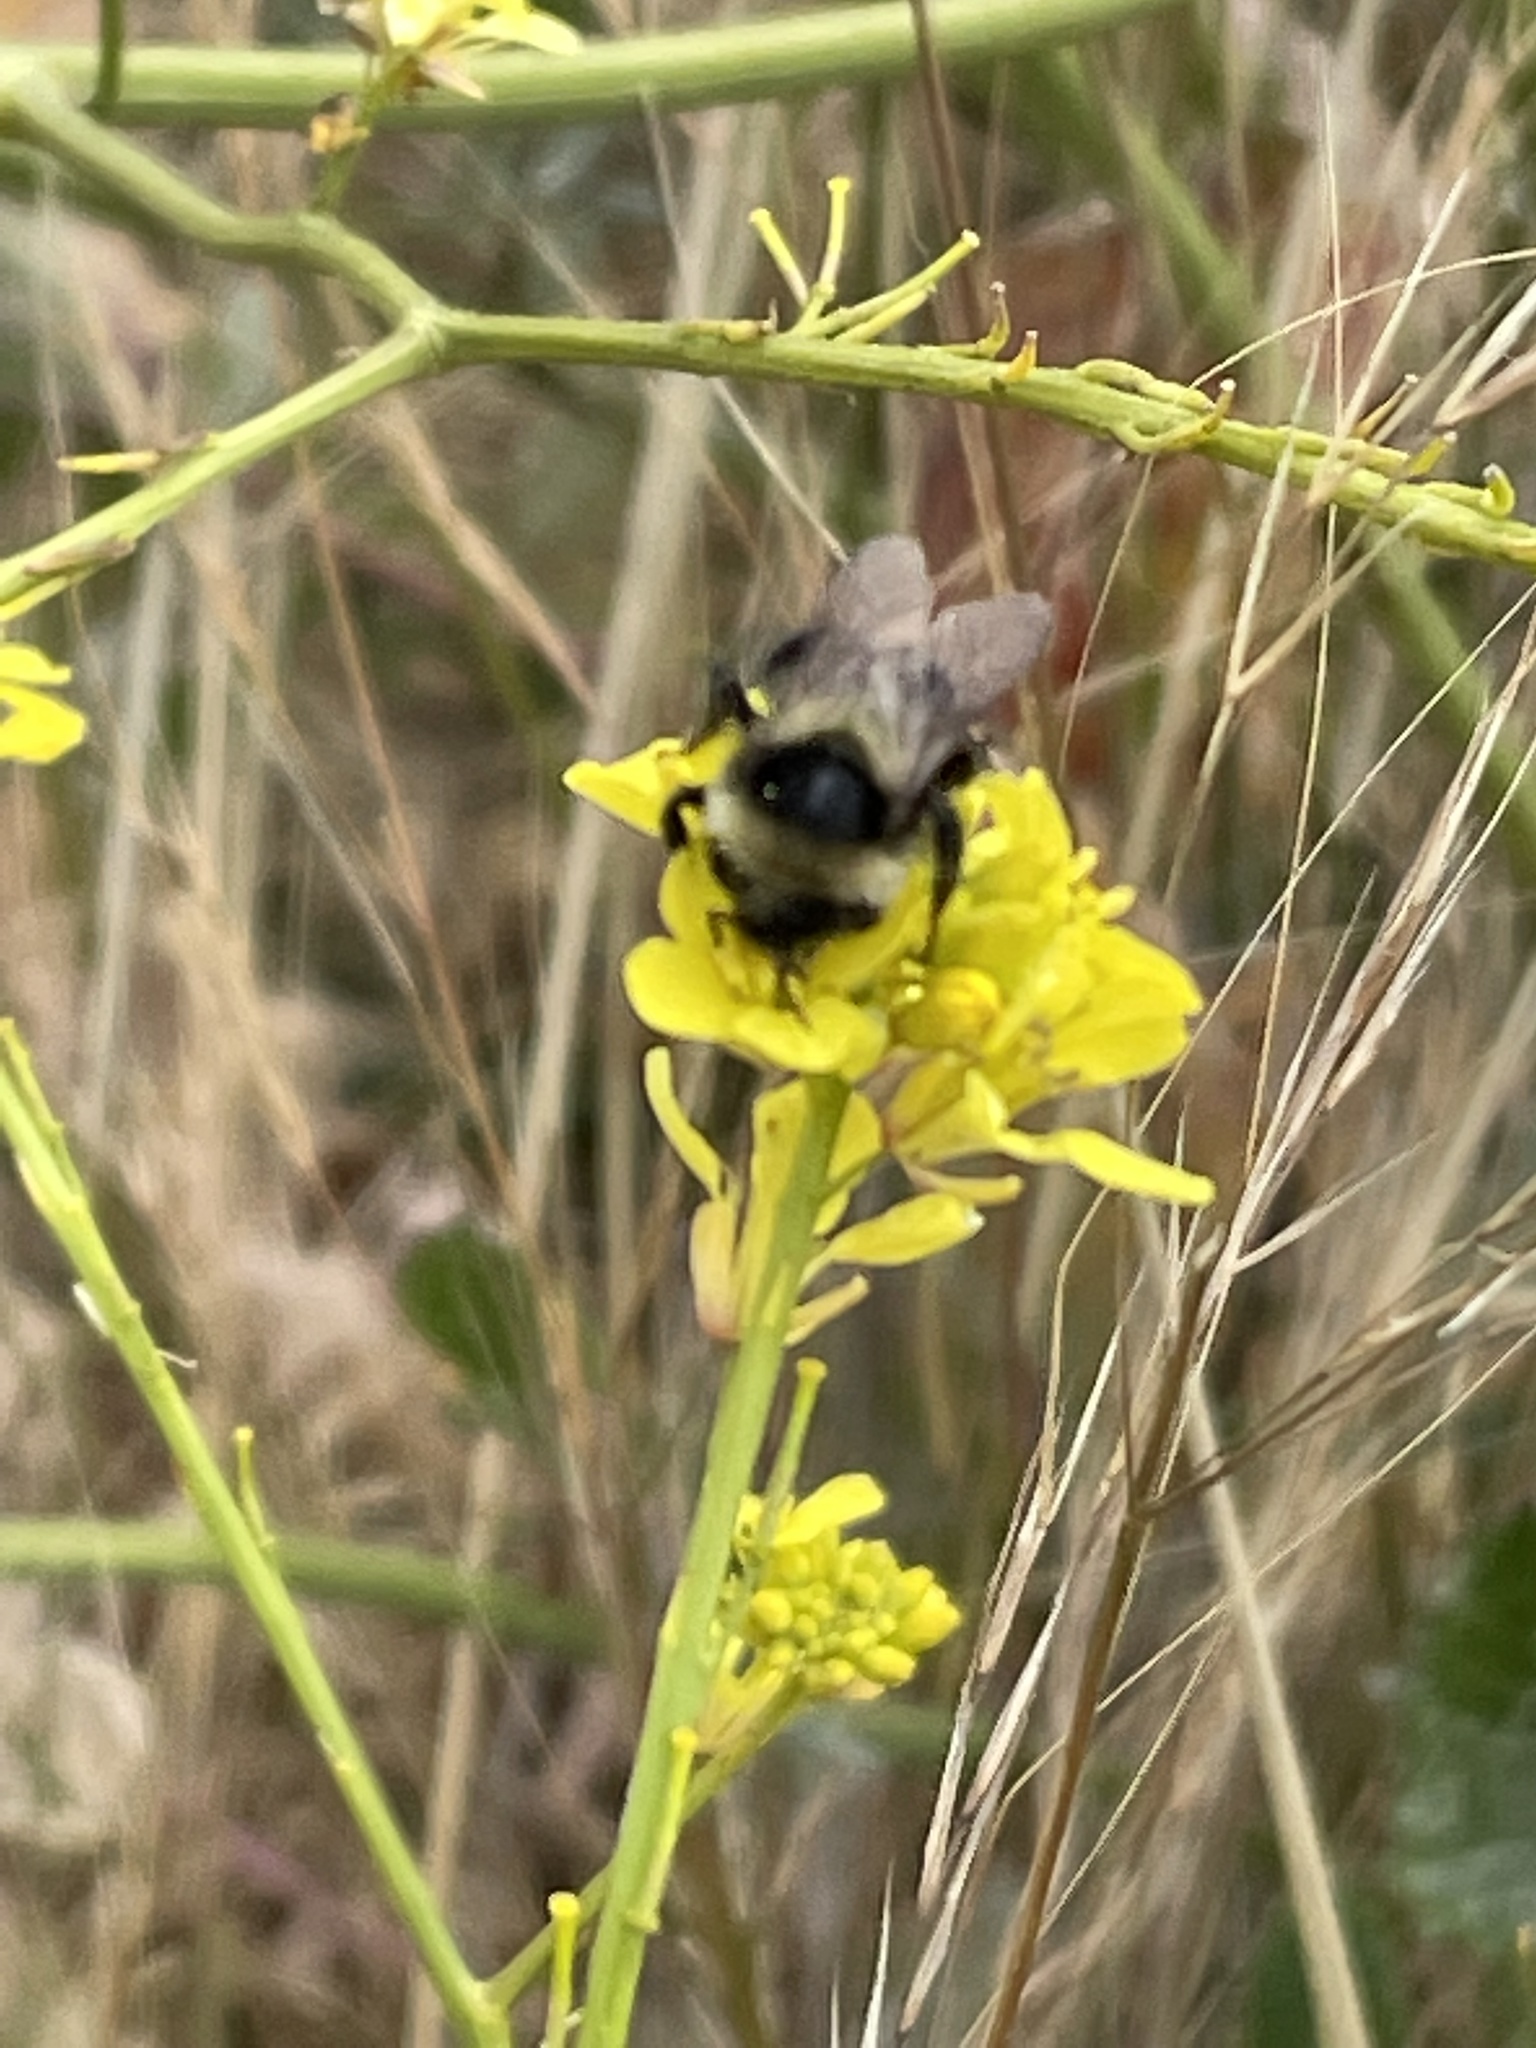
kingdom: Animalia
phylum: Arthropoda
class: Insecta
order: Hymenoptera
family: Apidae
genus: Bombus
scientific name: Bombus melanopygus
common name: Black tail bumble bee
